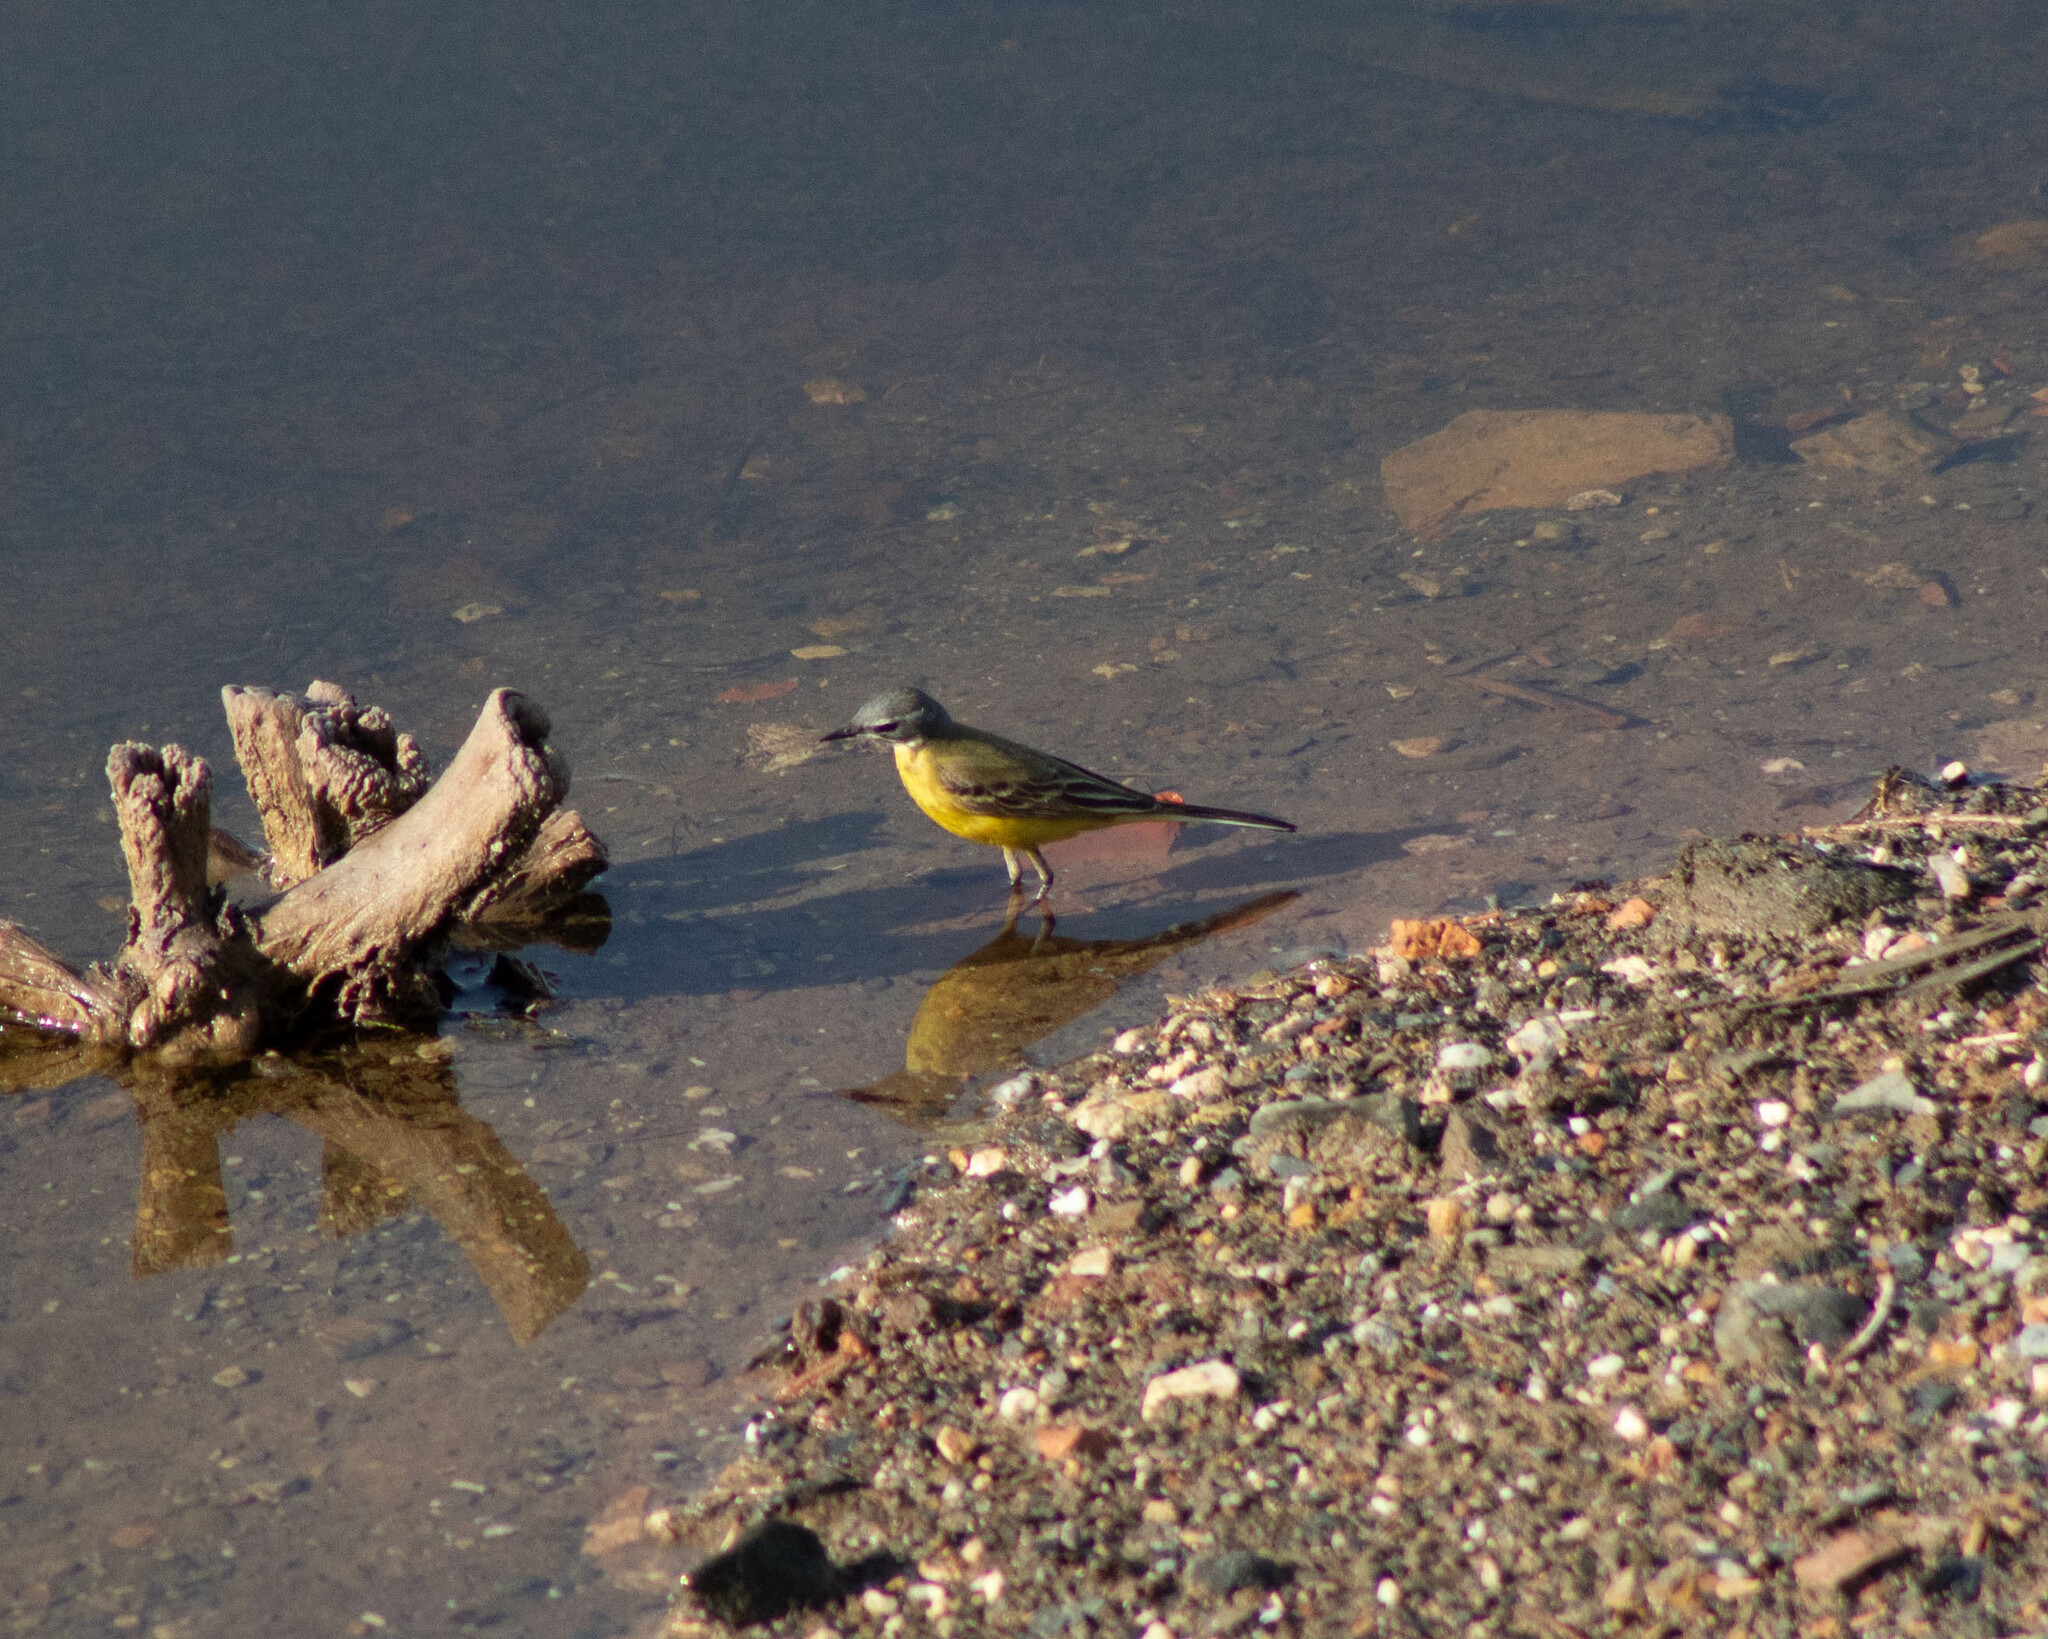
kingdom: Animalia
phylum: Chordata
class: Aves
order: Passeriformes
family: Motacillidae
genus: Motacilla
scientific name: Motacilla flava
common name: Western yellow wagtail
